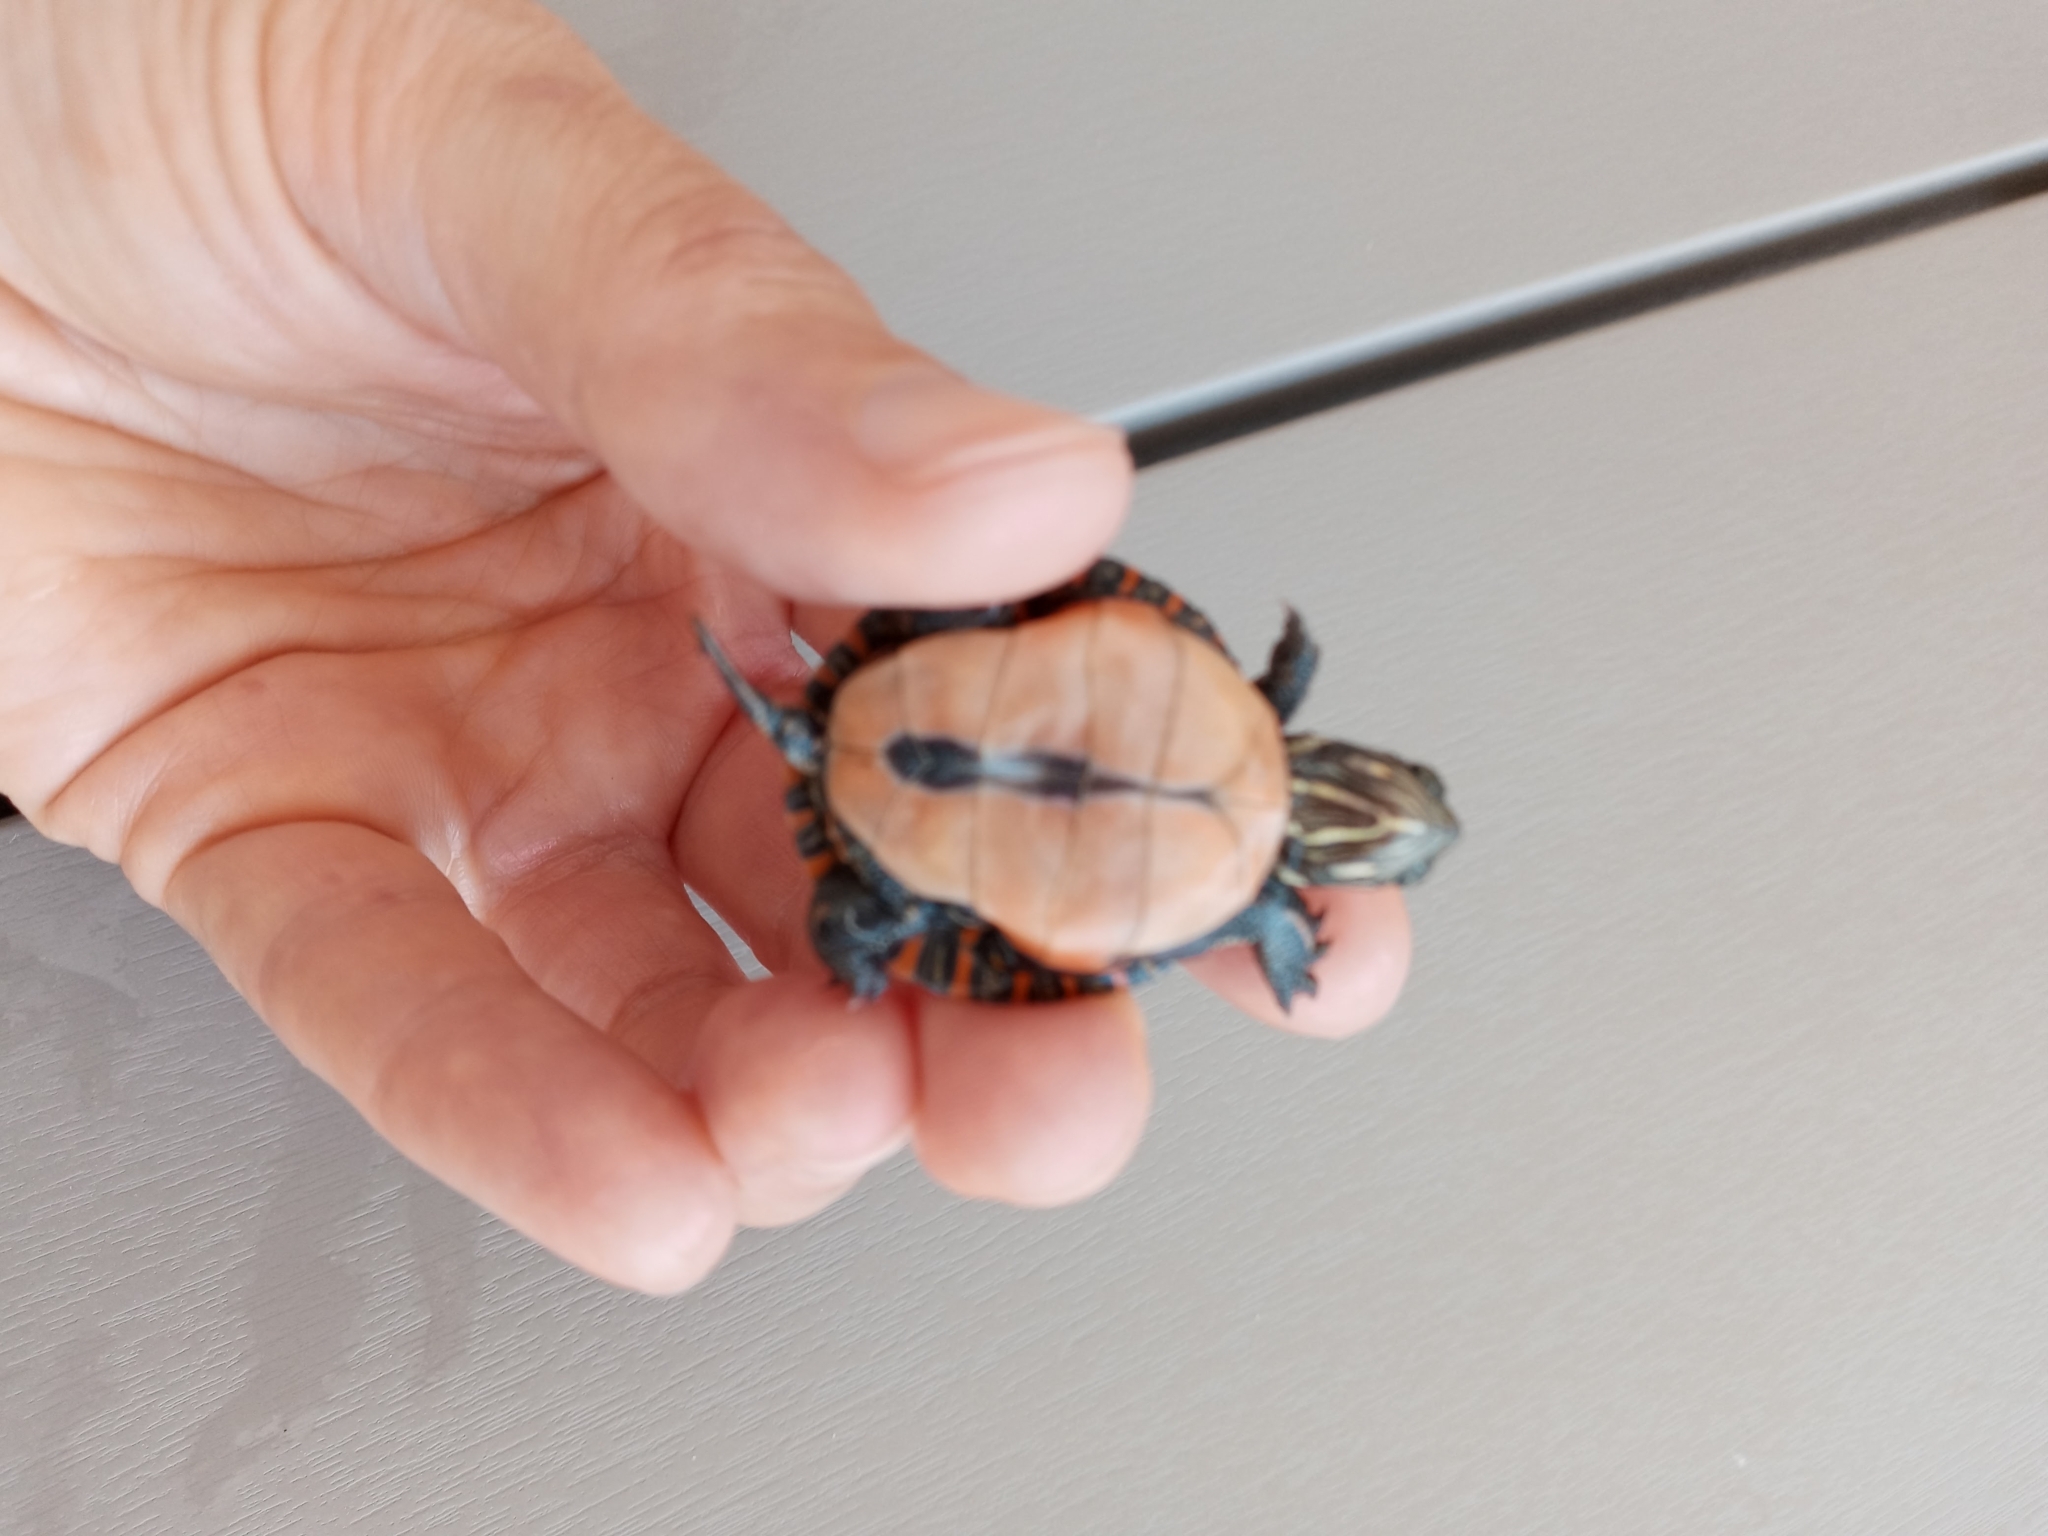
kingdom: Animalia
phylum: Chordata
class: Testudines
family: Emydidae
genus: Chrysemys
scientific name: Chrysemys picta
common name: Painted turtle
